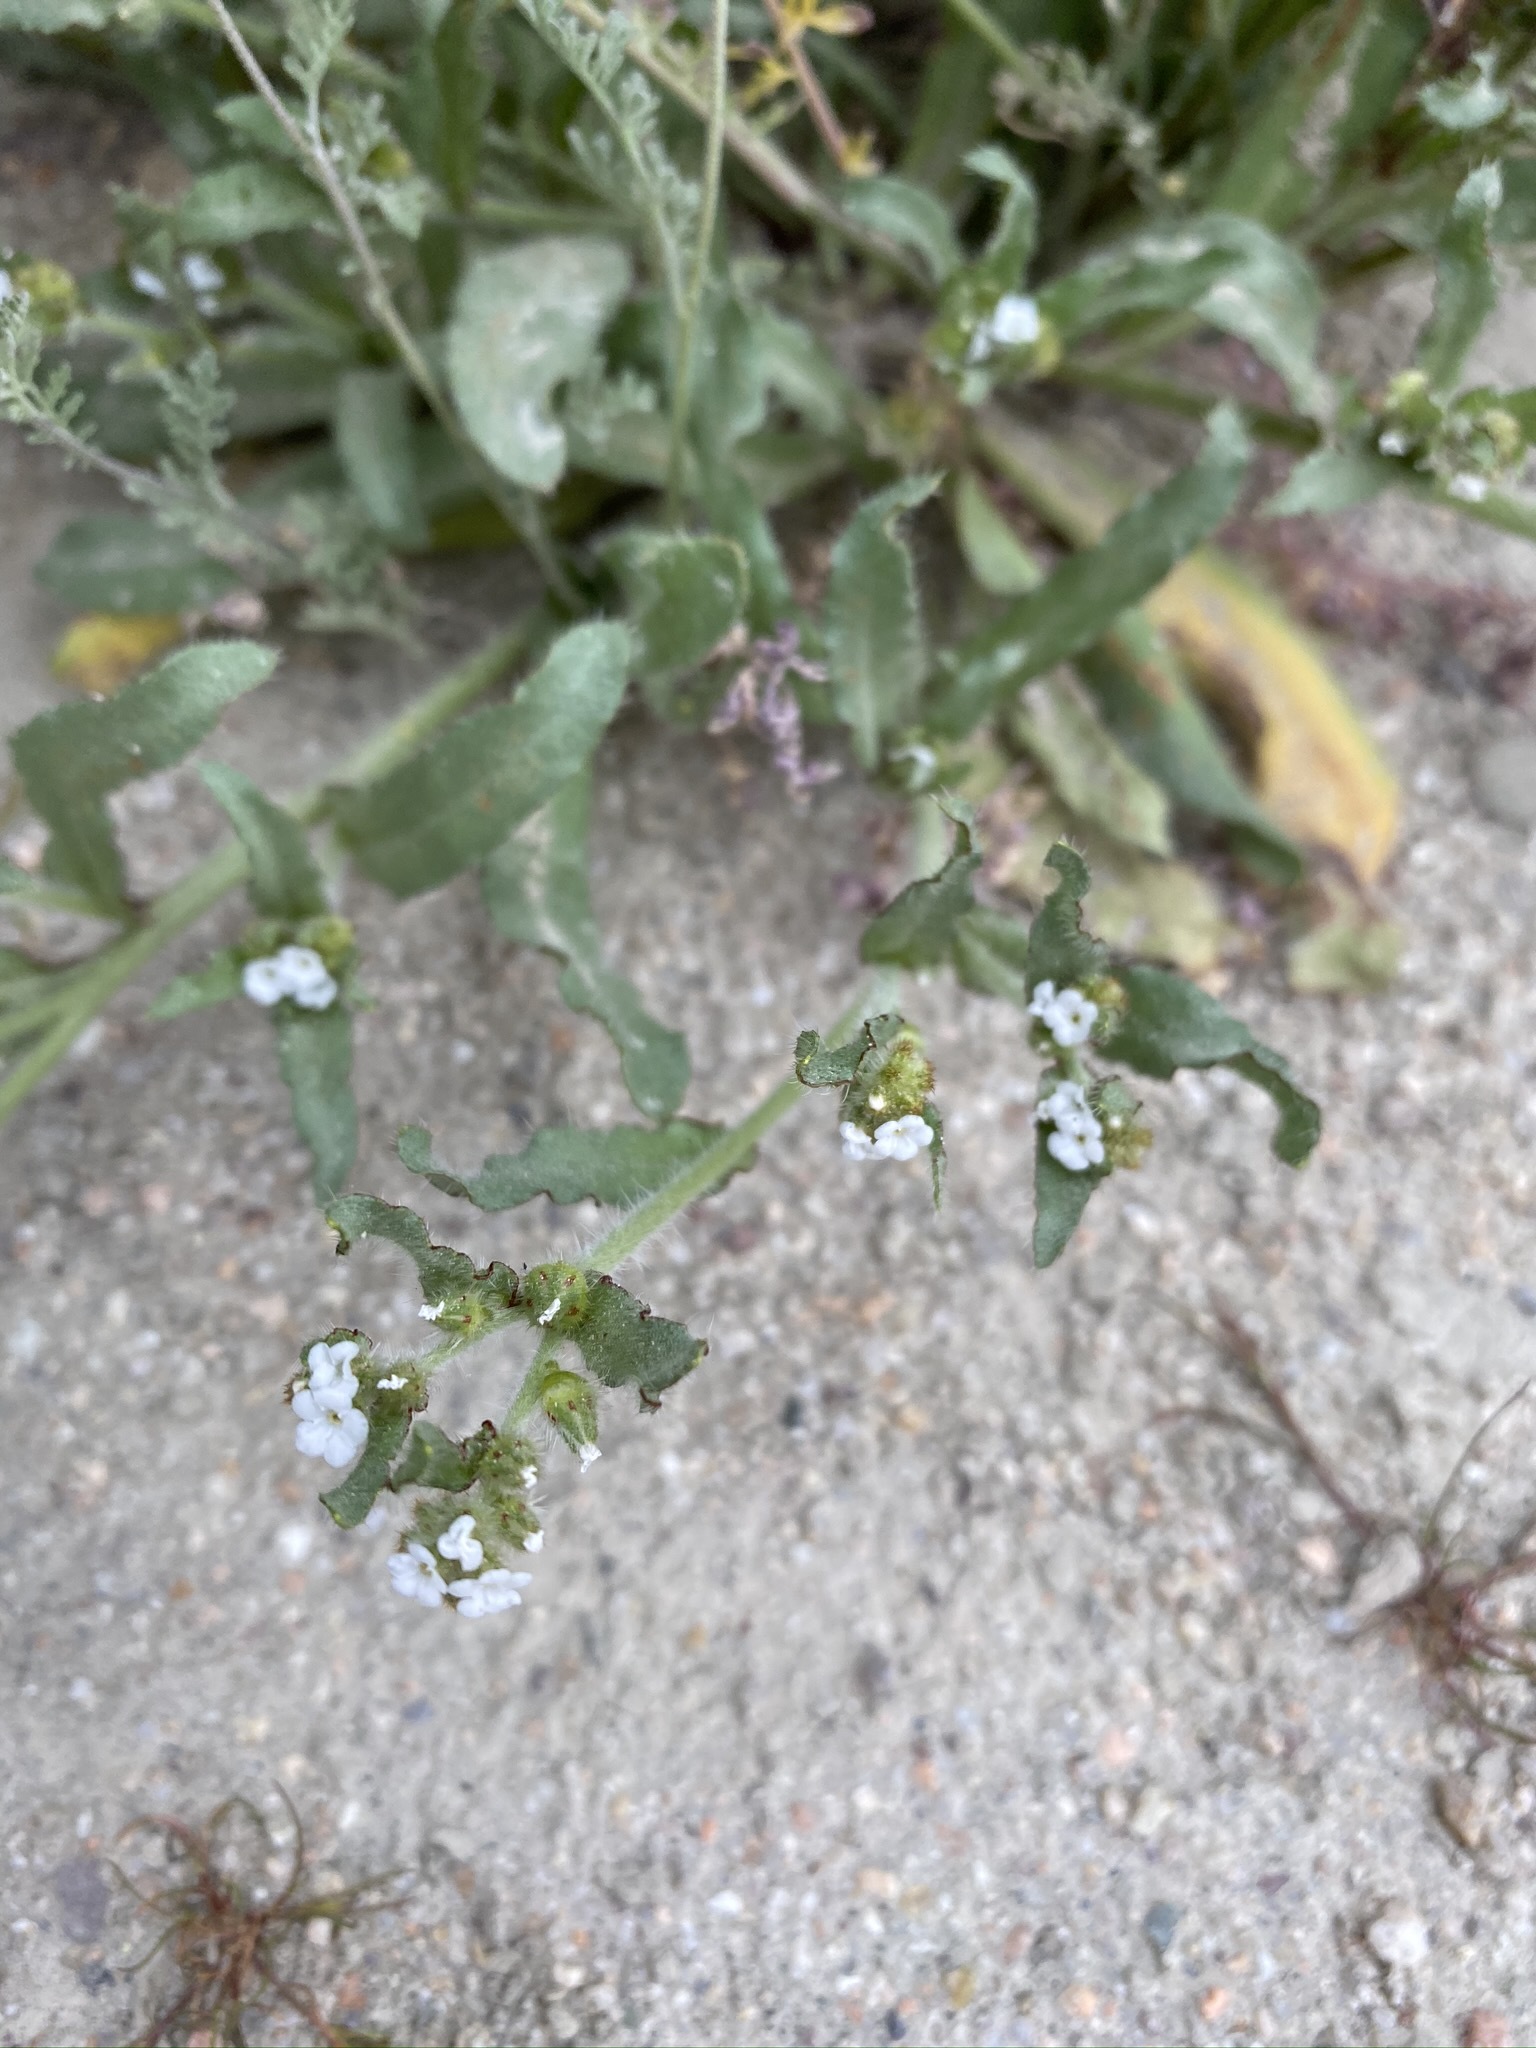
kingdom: Plantae
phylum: Tracheophyta
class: Magnoliopsida
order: Boraginales
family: Boraginaceae
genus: Plagiobothrys
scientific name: Plagiobothrys arizonicus
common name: Arizona popcorn-flower
